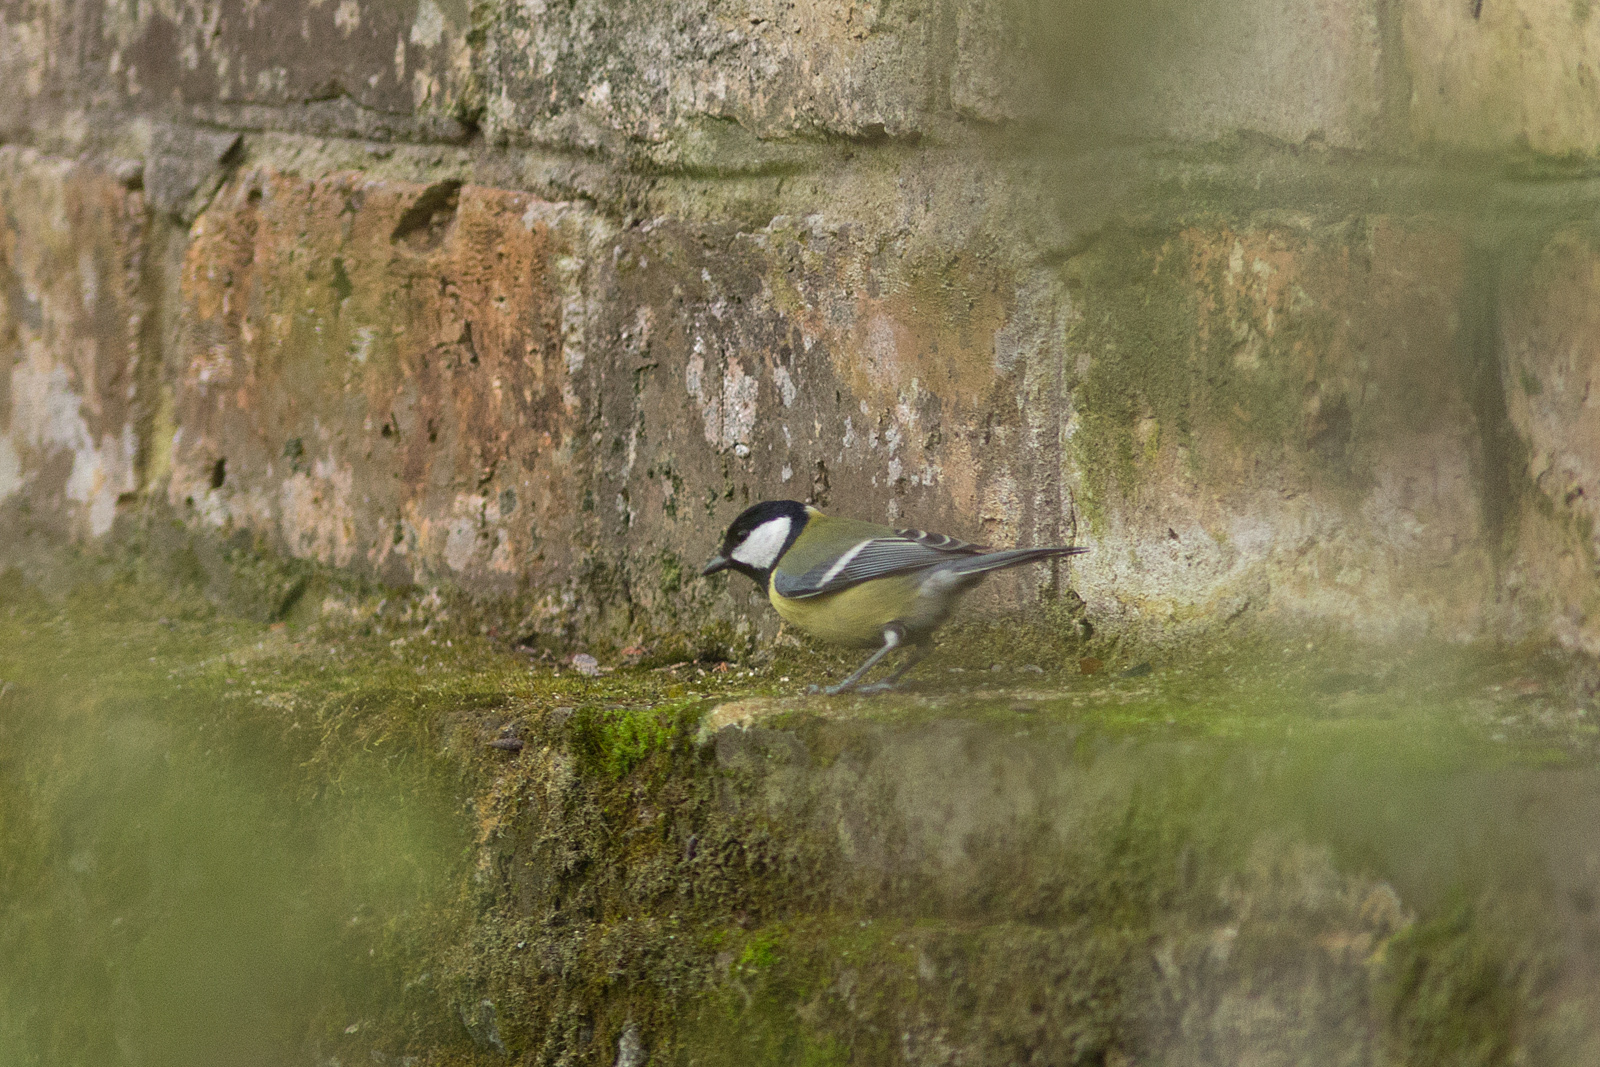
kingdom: Animalia
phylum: Chordata
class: Aves
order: Passeriformes
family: Paridae
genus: Parus
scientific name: Parus major
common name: Great tit
